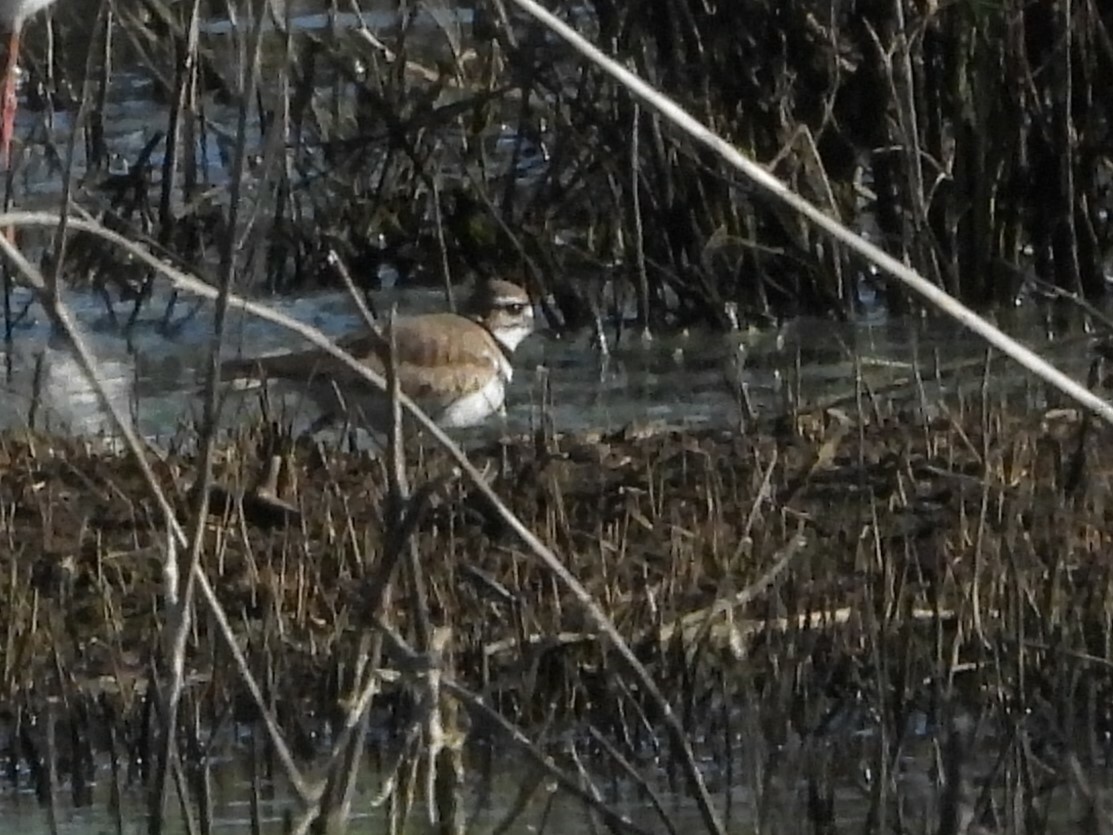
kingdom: Animalia
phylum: Chordata
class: Aves
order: Charadriiformes
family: Charadriidae
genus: Charadrius
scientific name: Charadrius vociferus
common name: Killdeer
